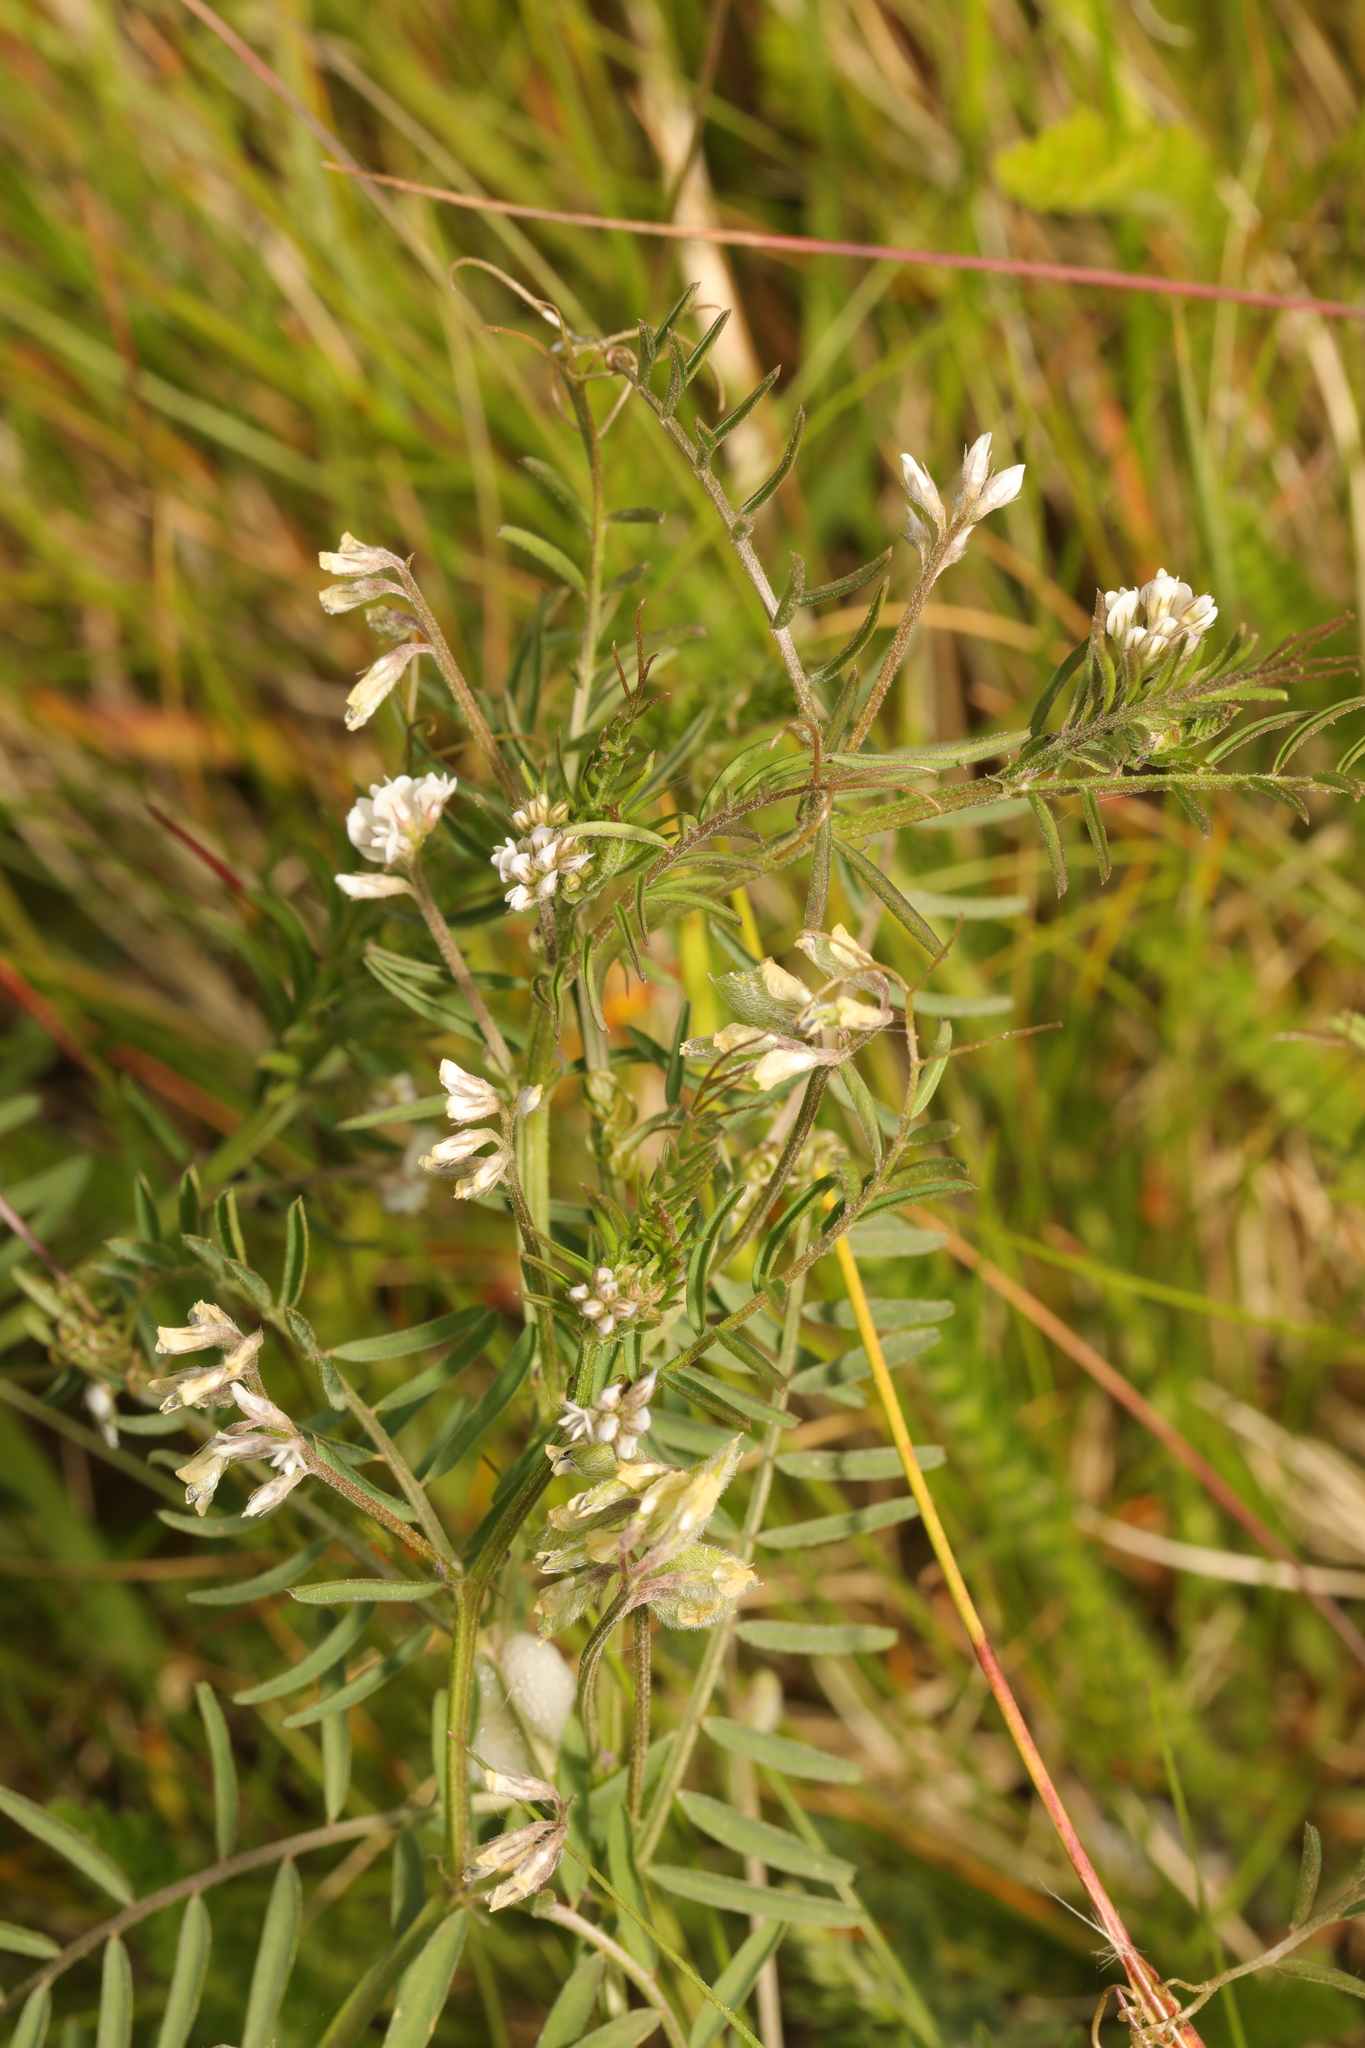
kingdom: Plantae
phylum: Tracheophyta
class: Magnoliopsida
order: Fabales
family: Fabaceae
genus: Vicia
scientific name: Vicia hirsuta
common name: Tiny vetch
